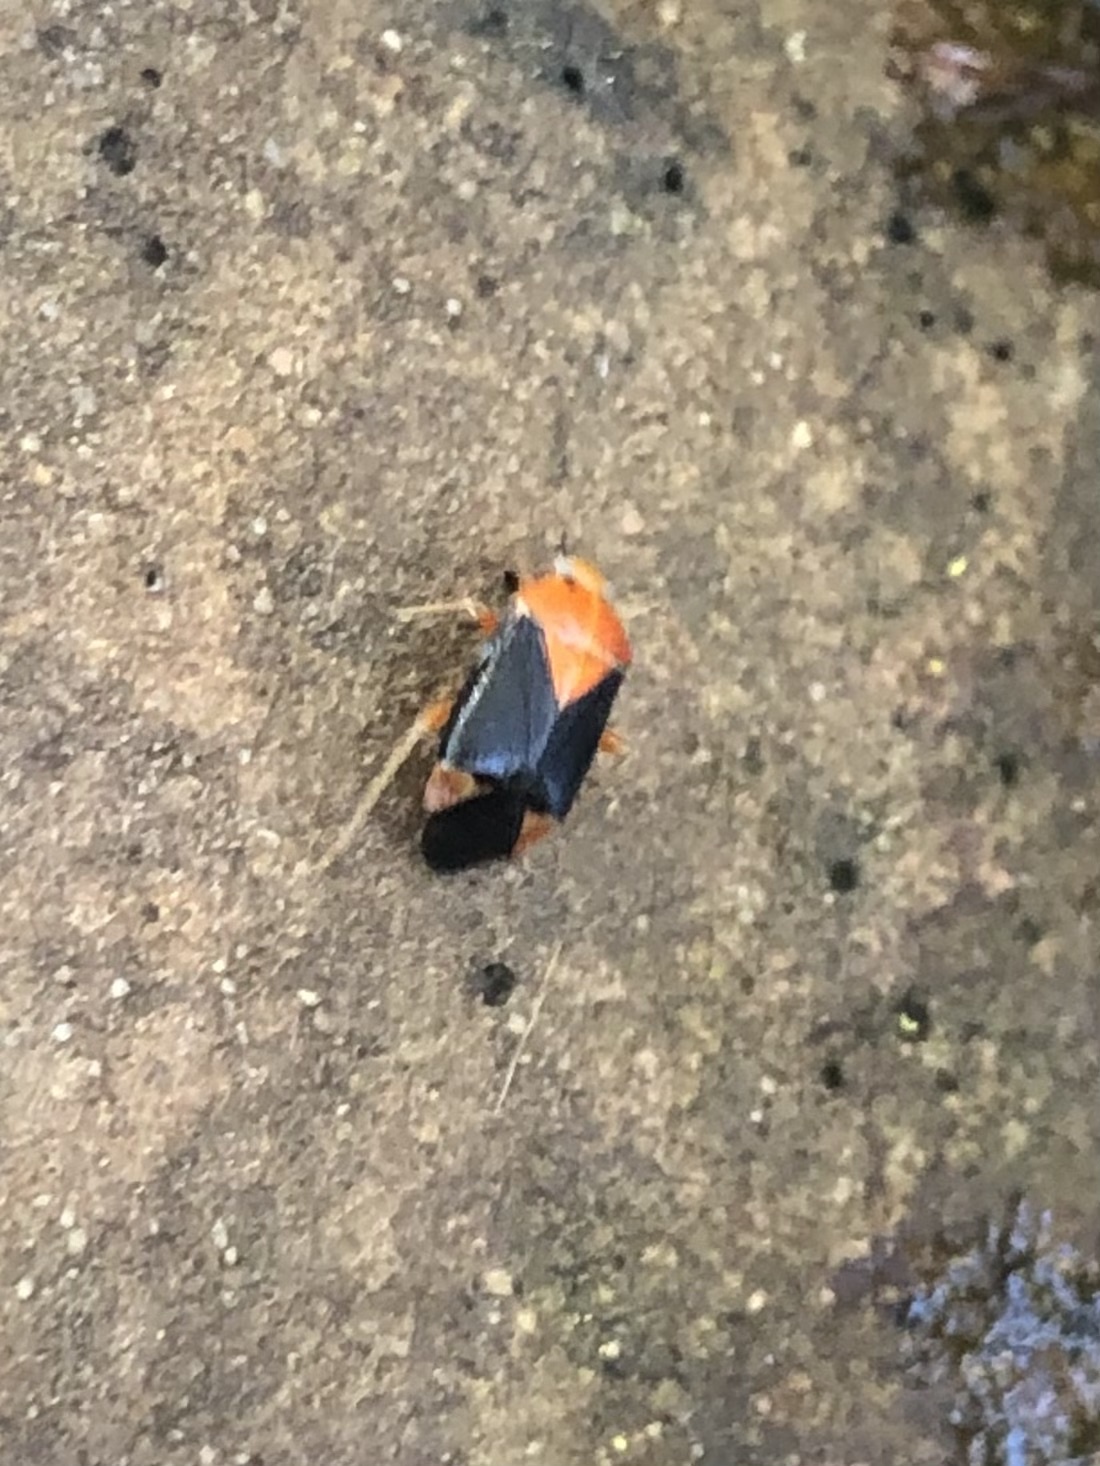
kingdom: Animalia
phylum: Arthropoda
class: Insecta
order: Hemiptera
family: Miridae
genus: Neocapsus
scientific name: Neocapsus cuneatus
